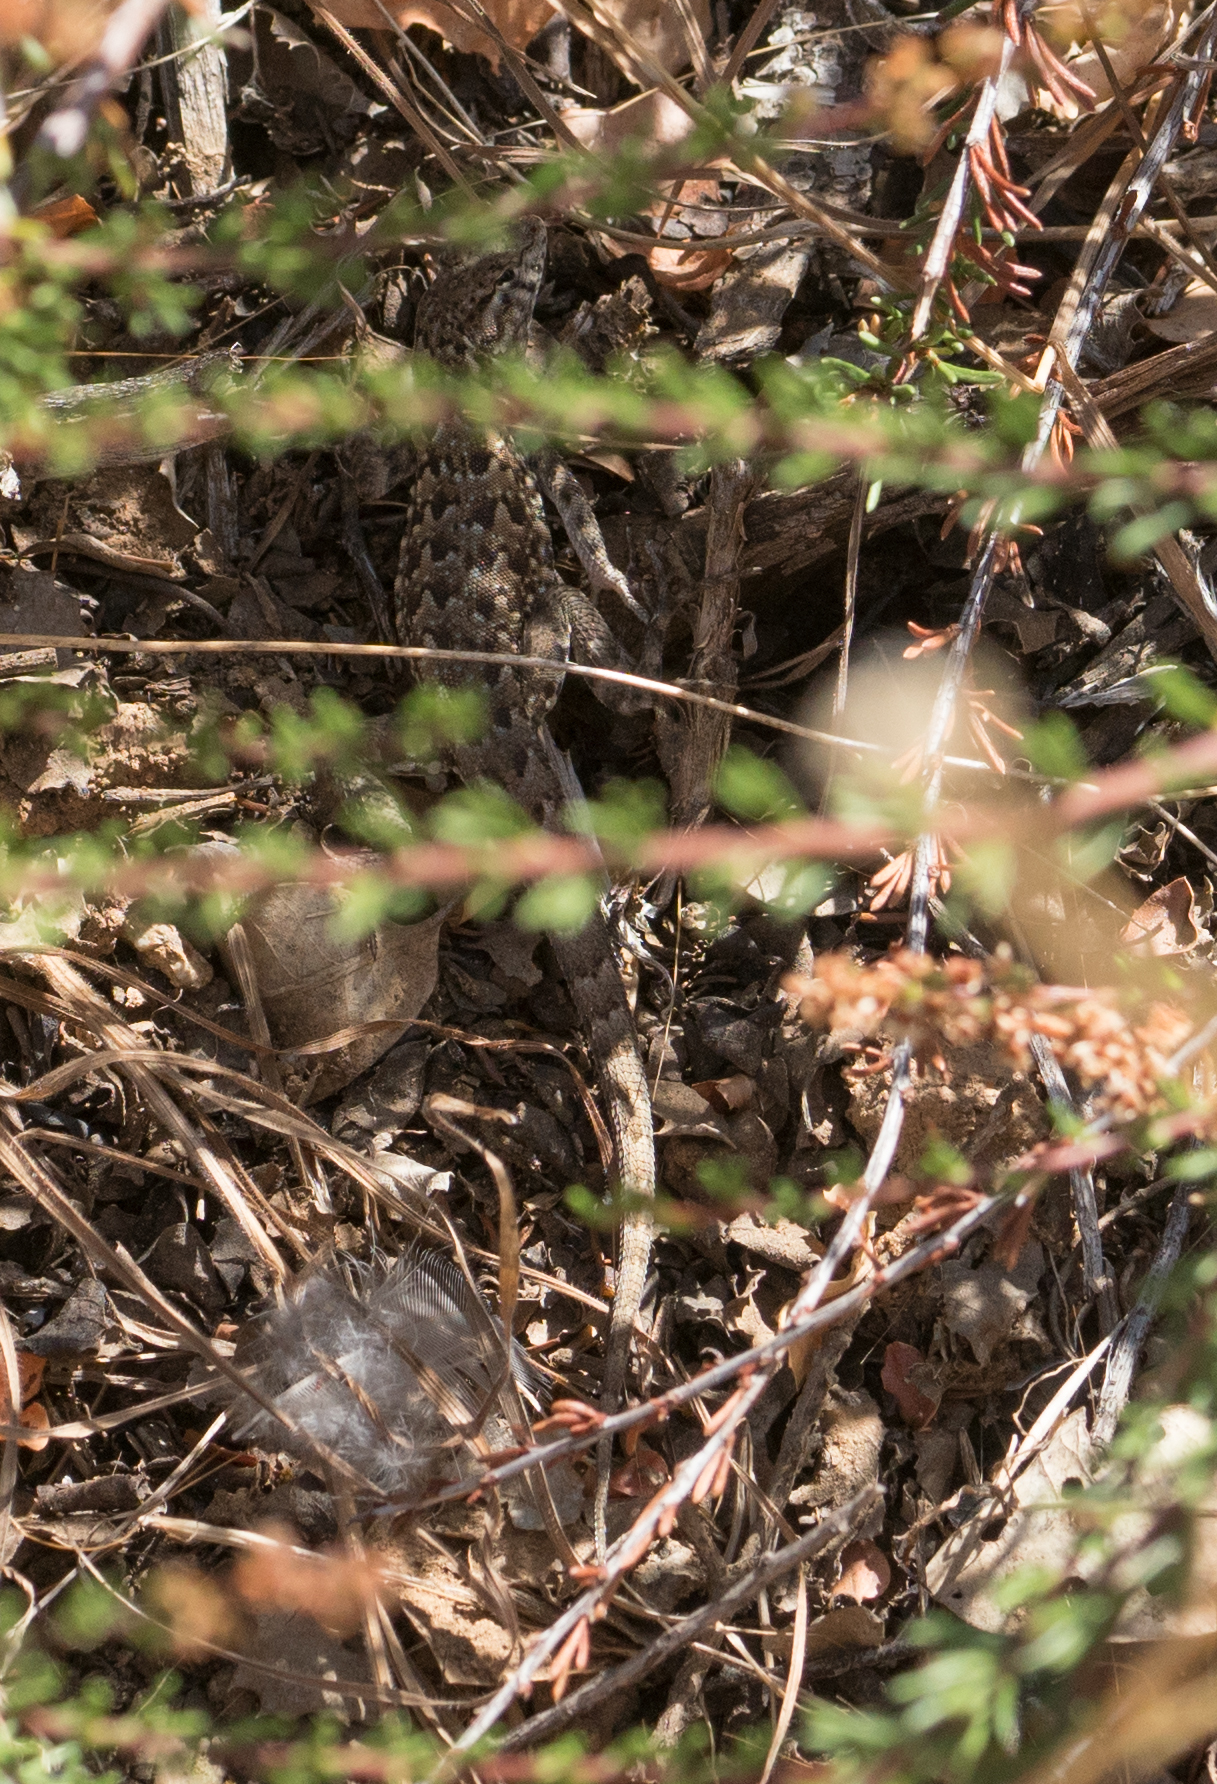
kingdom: Animalia
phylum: Chordata
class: Squamata
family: Phrynosomatidae
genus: Uta
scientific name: Uta stansburiana
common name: Side-blotched lizard
